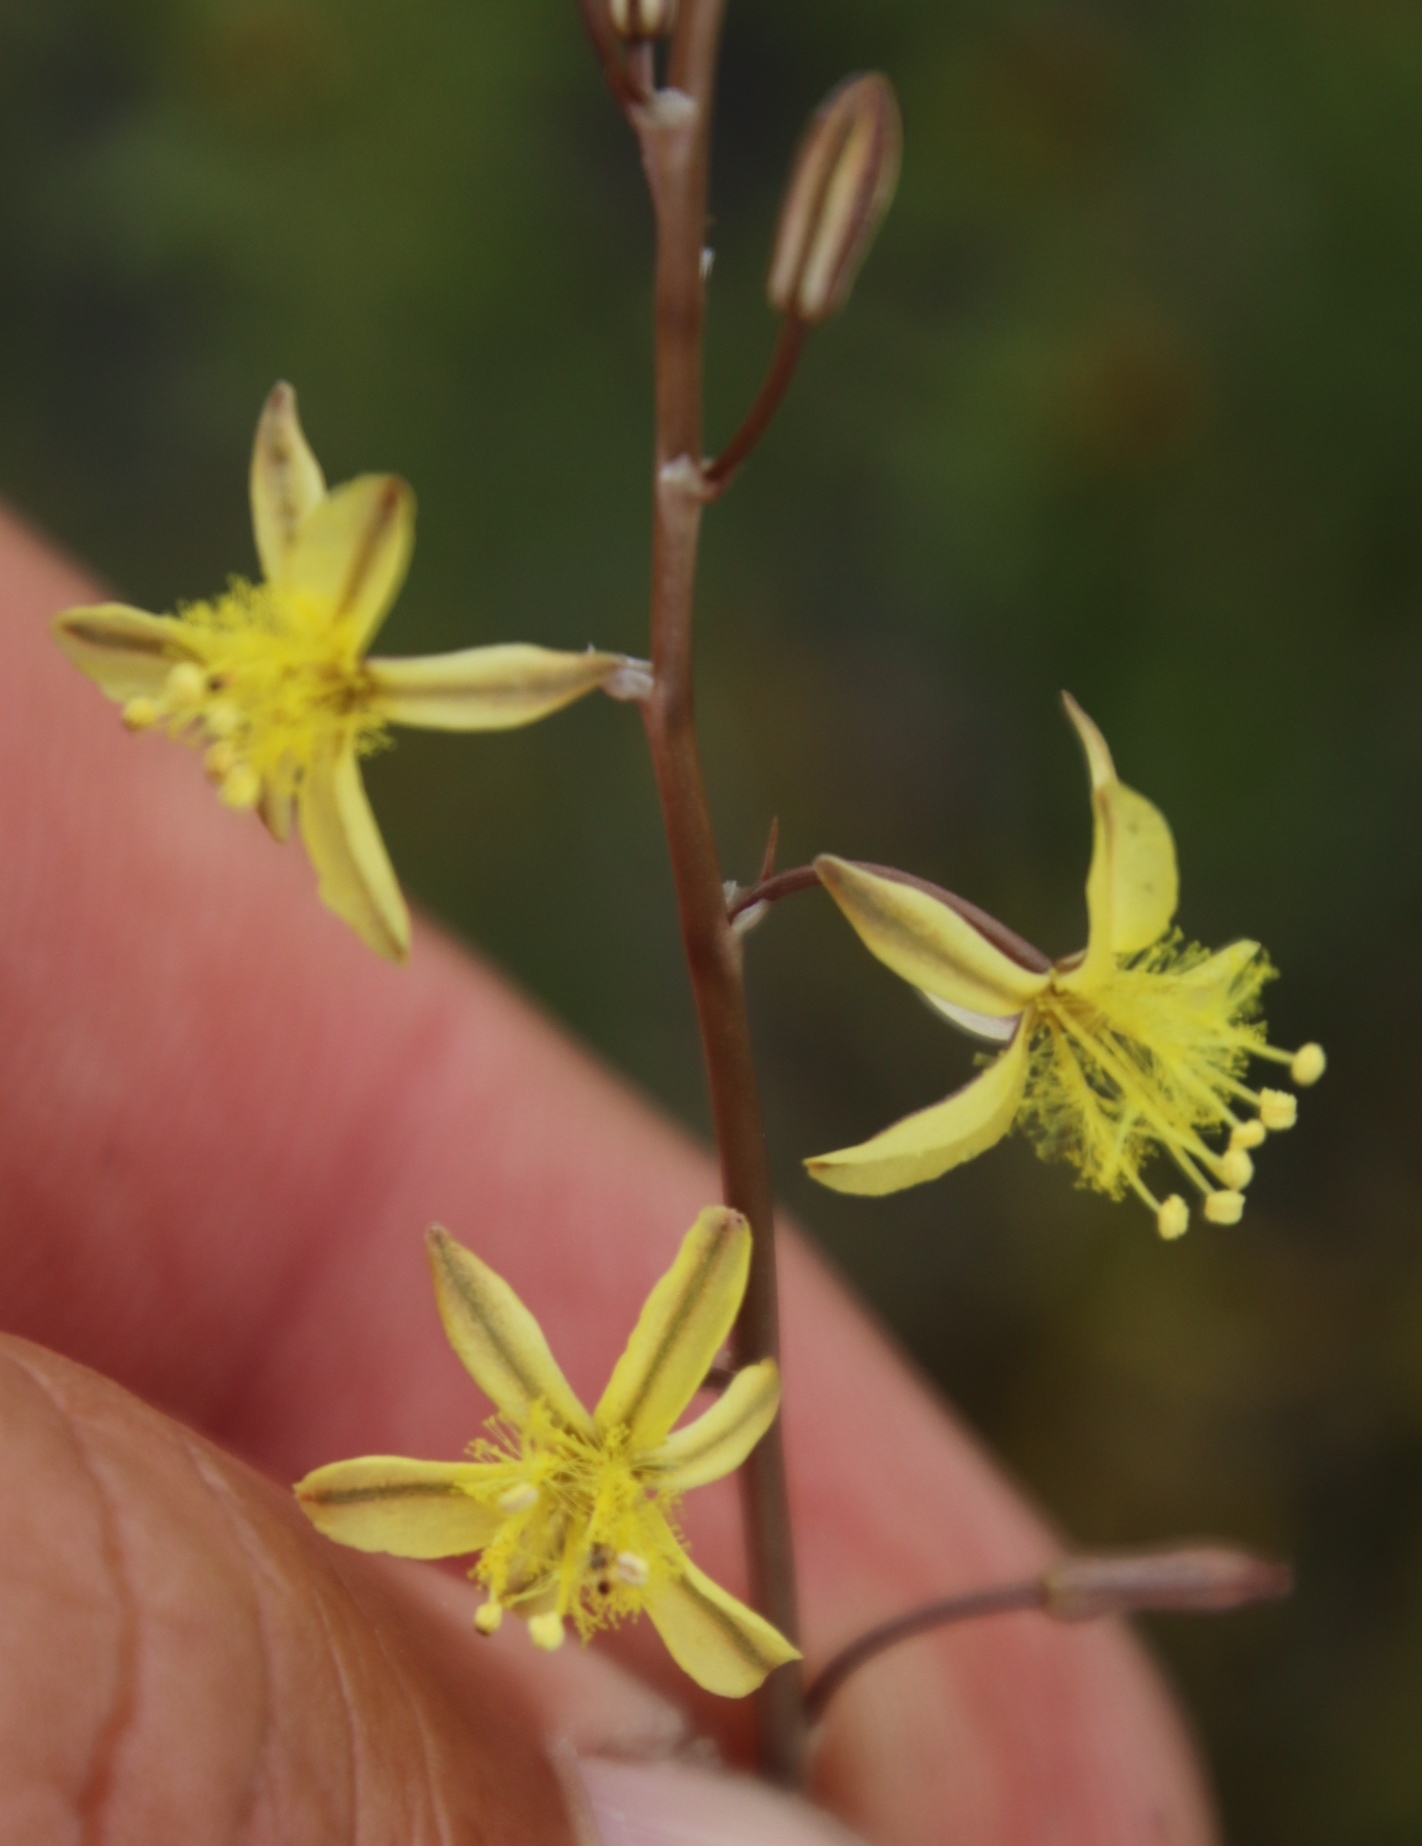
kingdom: Plantae
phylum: Tracheophyta
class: Liliopsida
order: Asparagales
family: Asphodelaceae
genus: Bulbine
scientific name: Bulbine favosa
